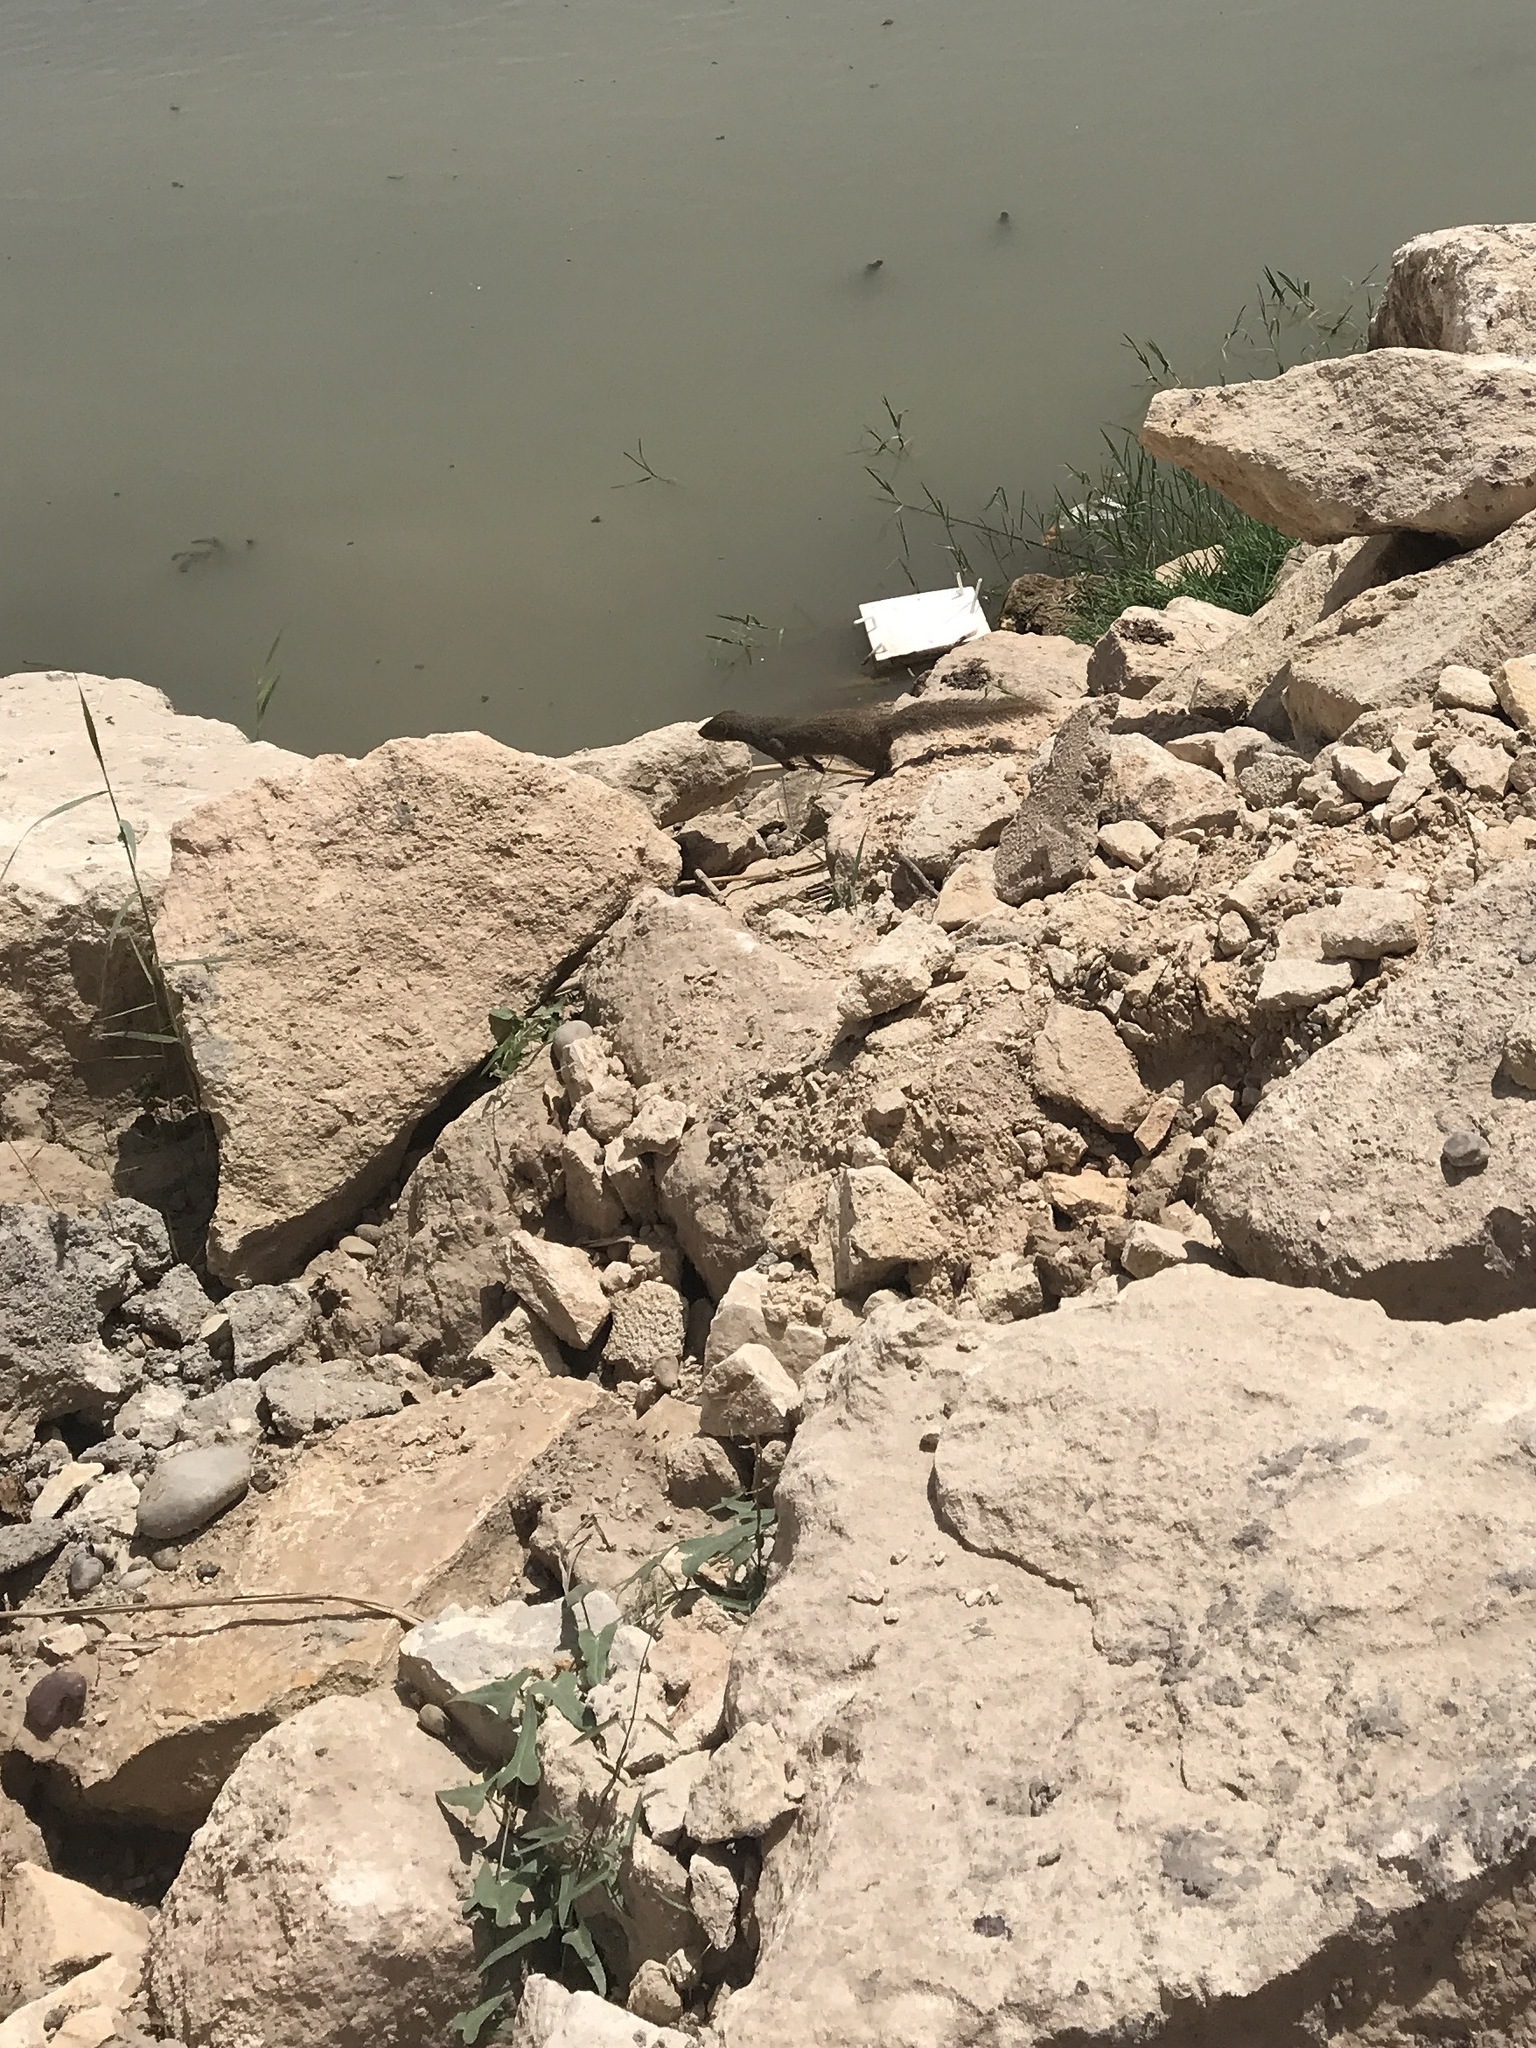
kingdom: Animalia
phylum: Chordata
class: Mammalia
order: Carnivora
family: Herpestidae
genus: Herpestes
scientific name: Herpestes javanicus
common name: Small asian mongoose
